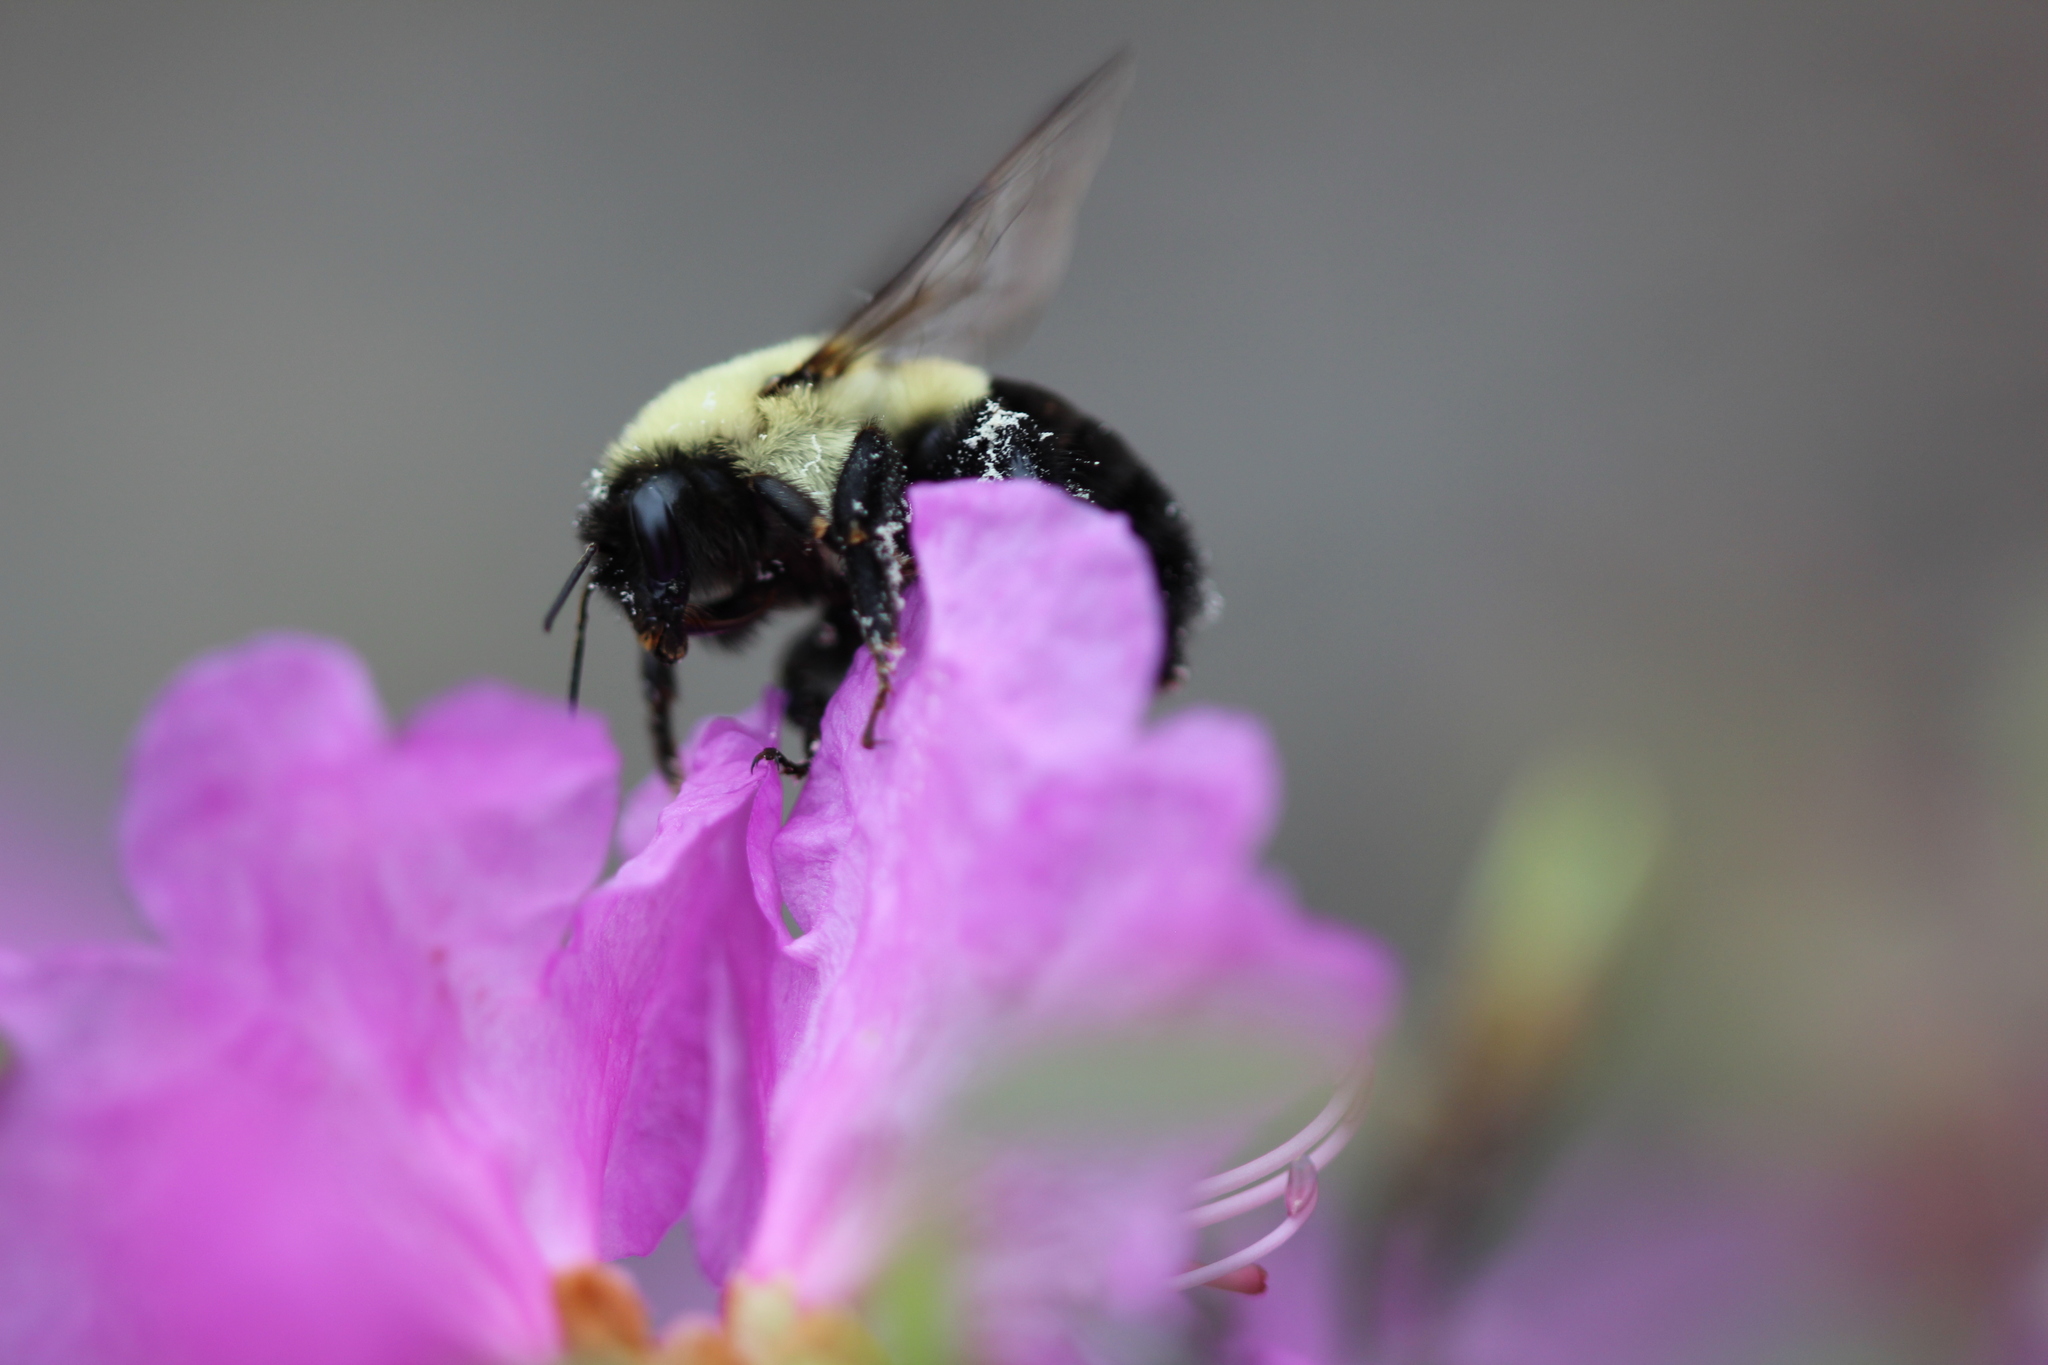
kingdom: Animalia
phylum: Arthropoda
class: Insecta
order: Hymenoptera
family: Apidae
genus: Bombus
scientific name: Bombus impatiens
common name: Common eastern bumble bee
